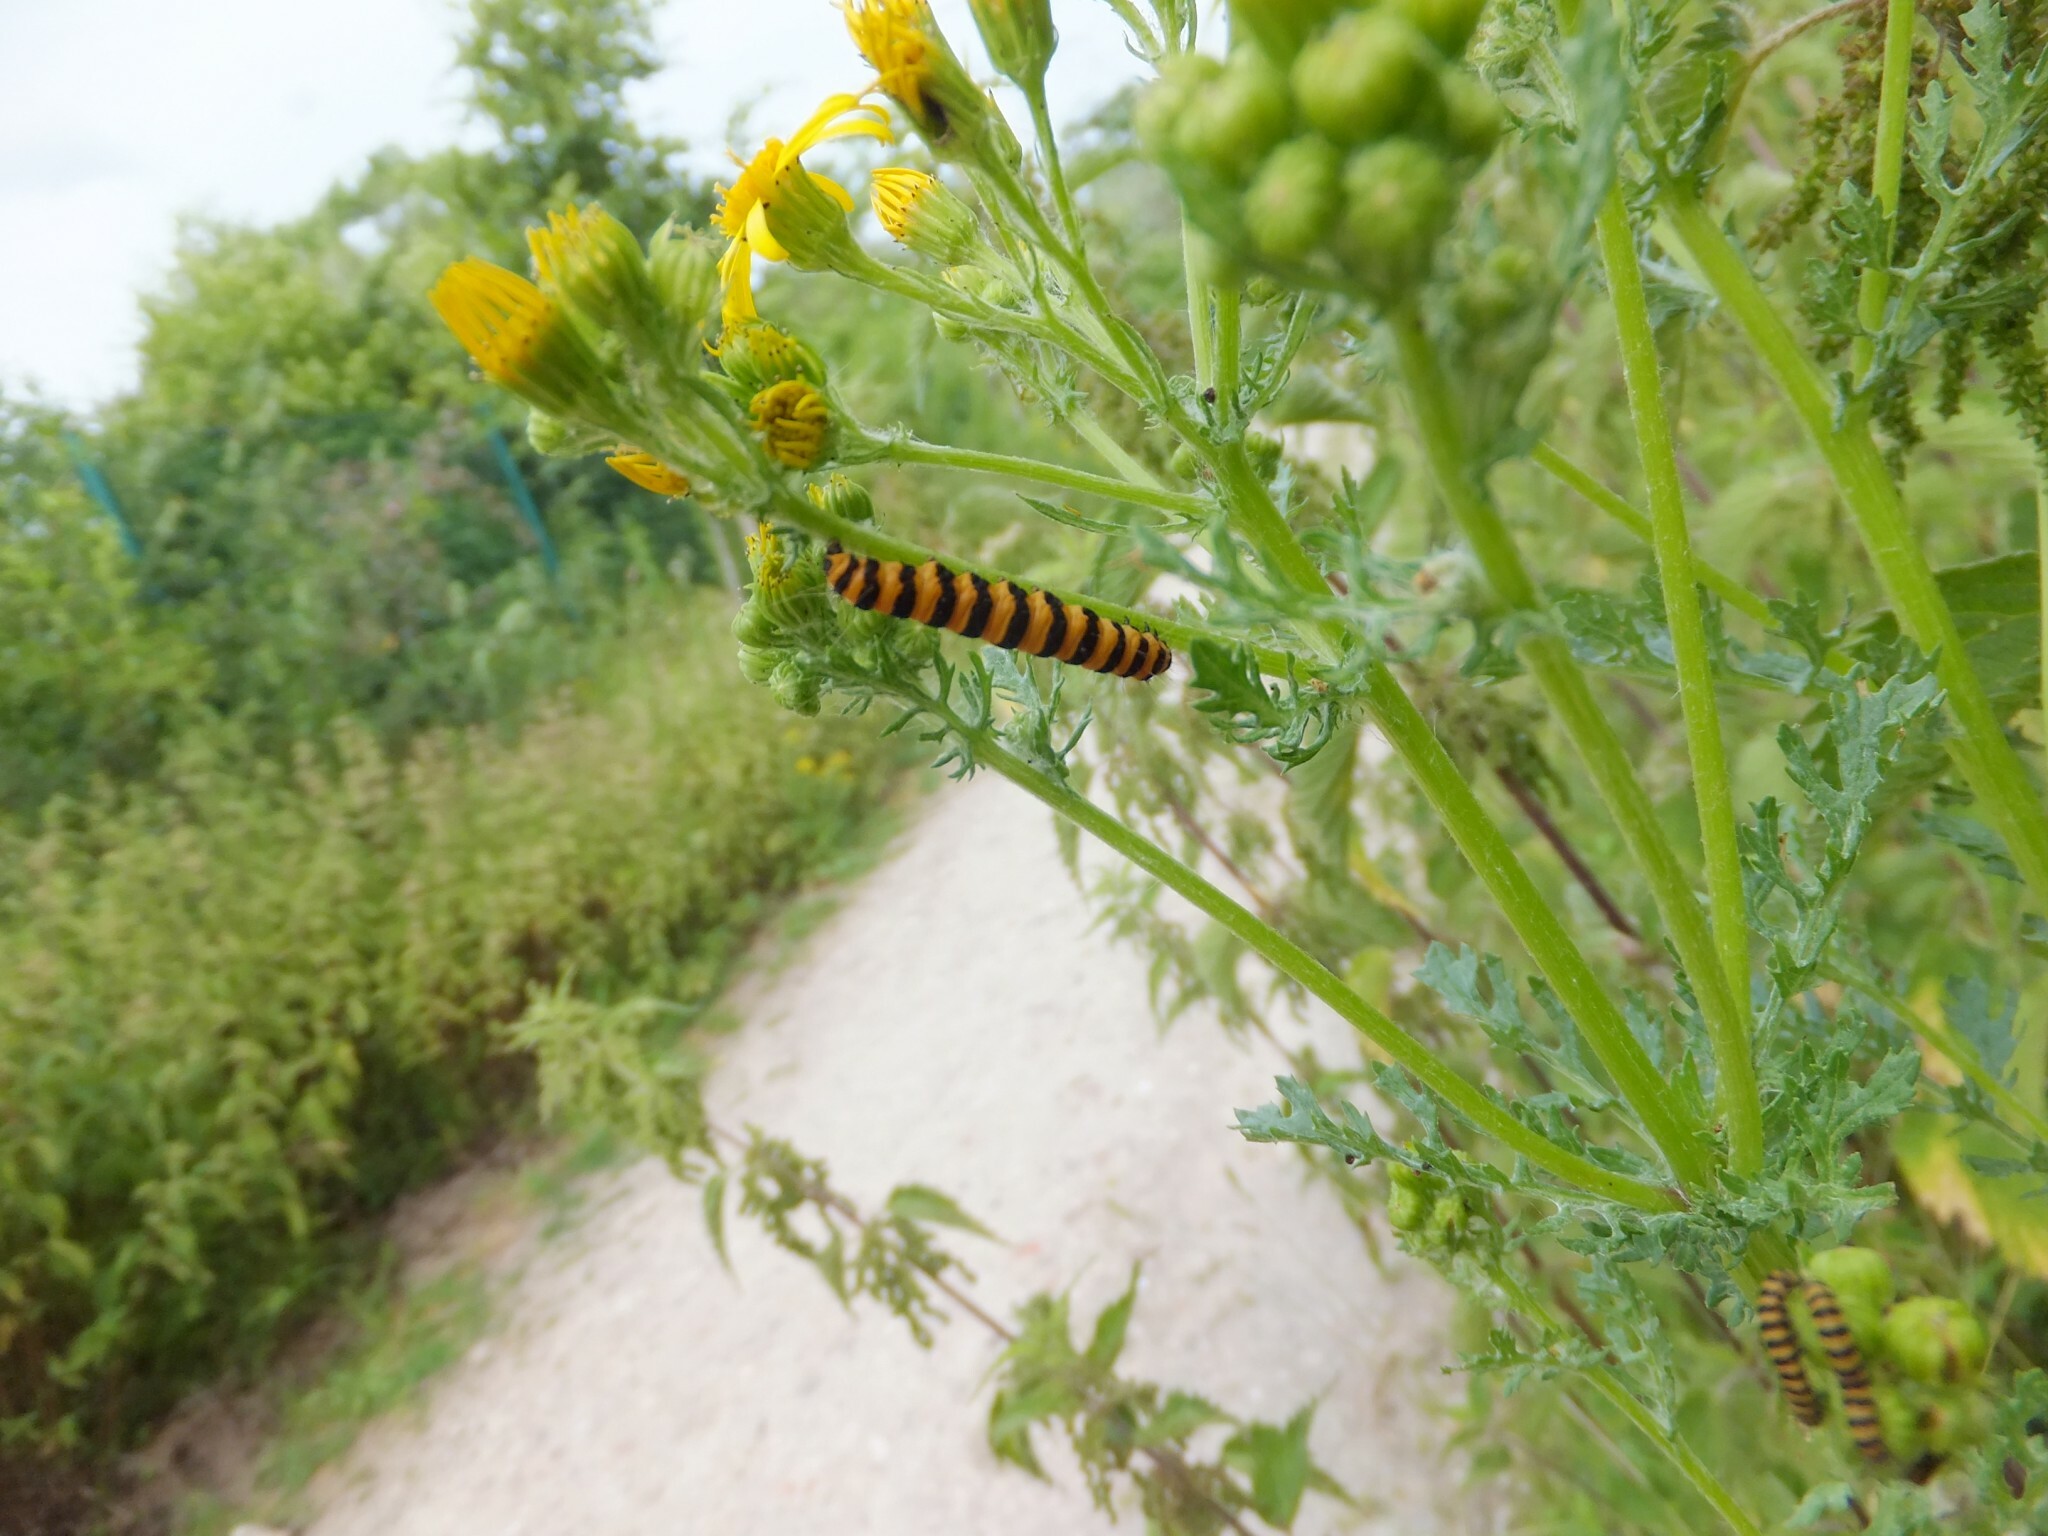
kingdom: Animalia
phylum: Arthropoda
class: Insecta
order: Lepidoptera
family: Erebidae
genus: Tyria
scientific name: Tyria jacobaeae
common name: Cinnabar
